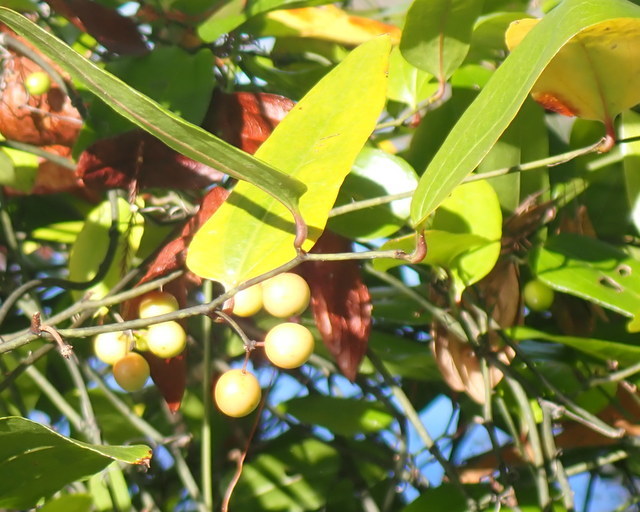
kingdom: Plantae
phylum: Tracheophyta
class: Liliopsida
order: Liliales
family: Smilacaceae
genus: Smilax
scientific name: Smilax walteri
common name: Coral greenbrier
